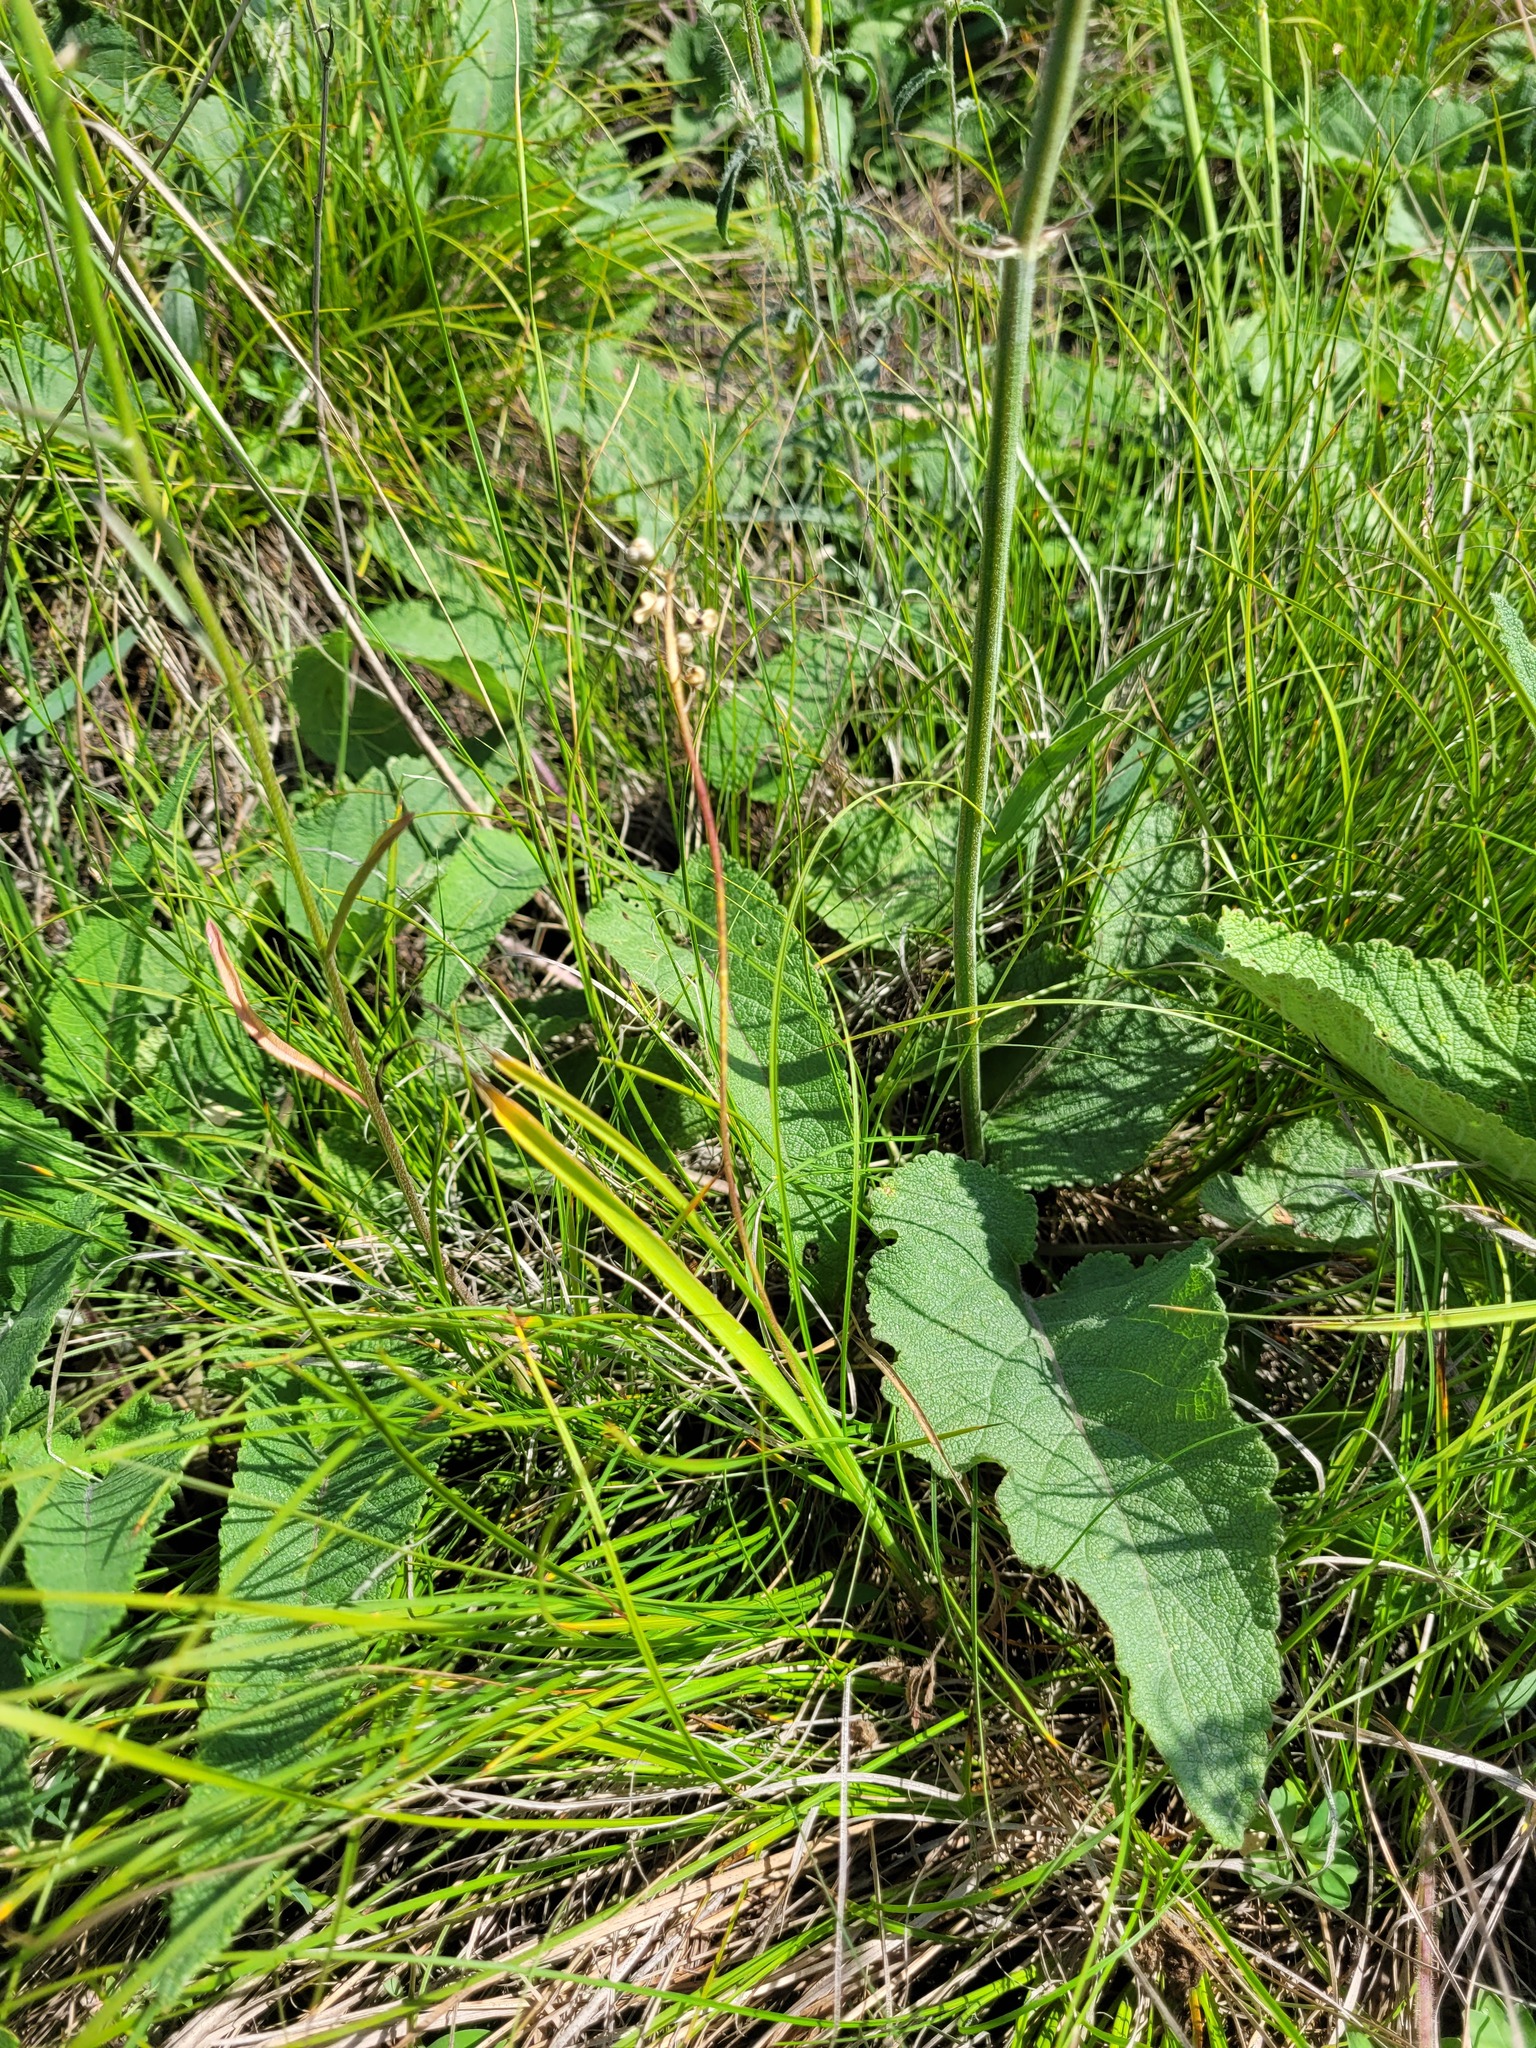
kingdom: Plantae
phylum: Tracheophyta
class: Liliopsida
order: Asparagales
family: Asparagaceae
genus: Hyacinthella
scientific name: Hyacinthella leucophaea
